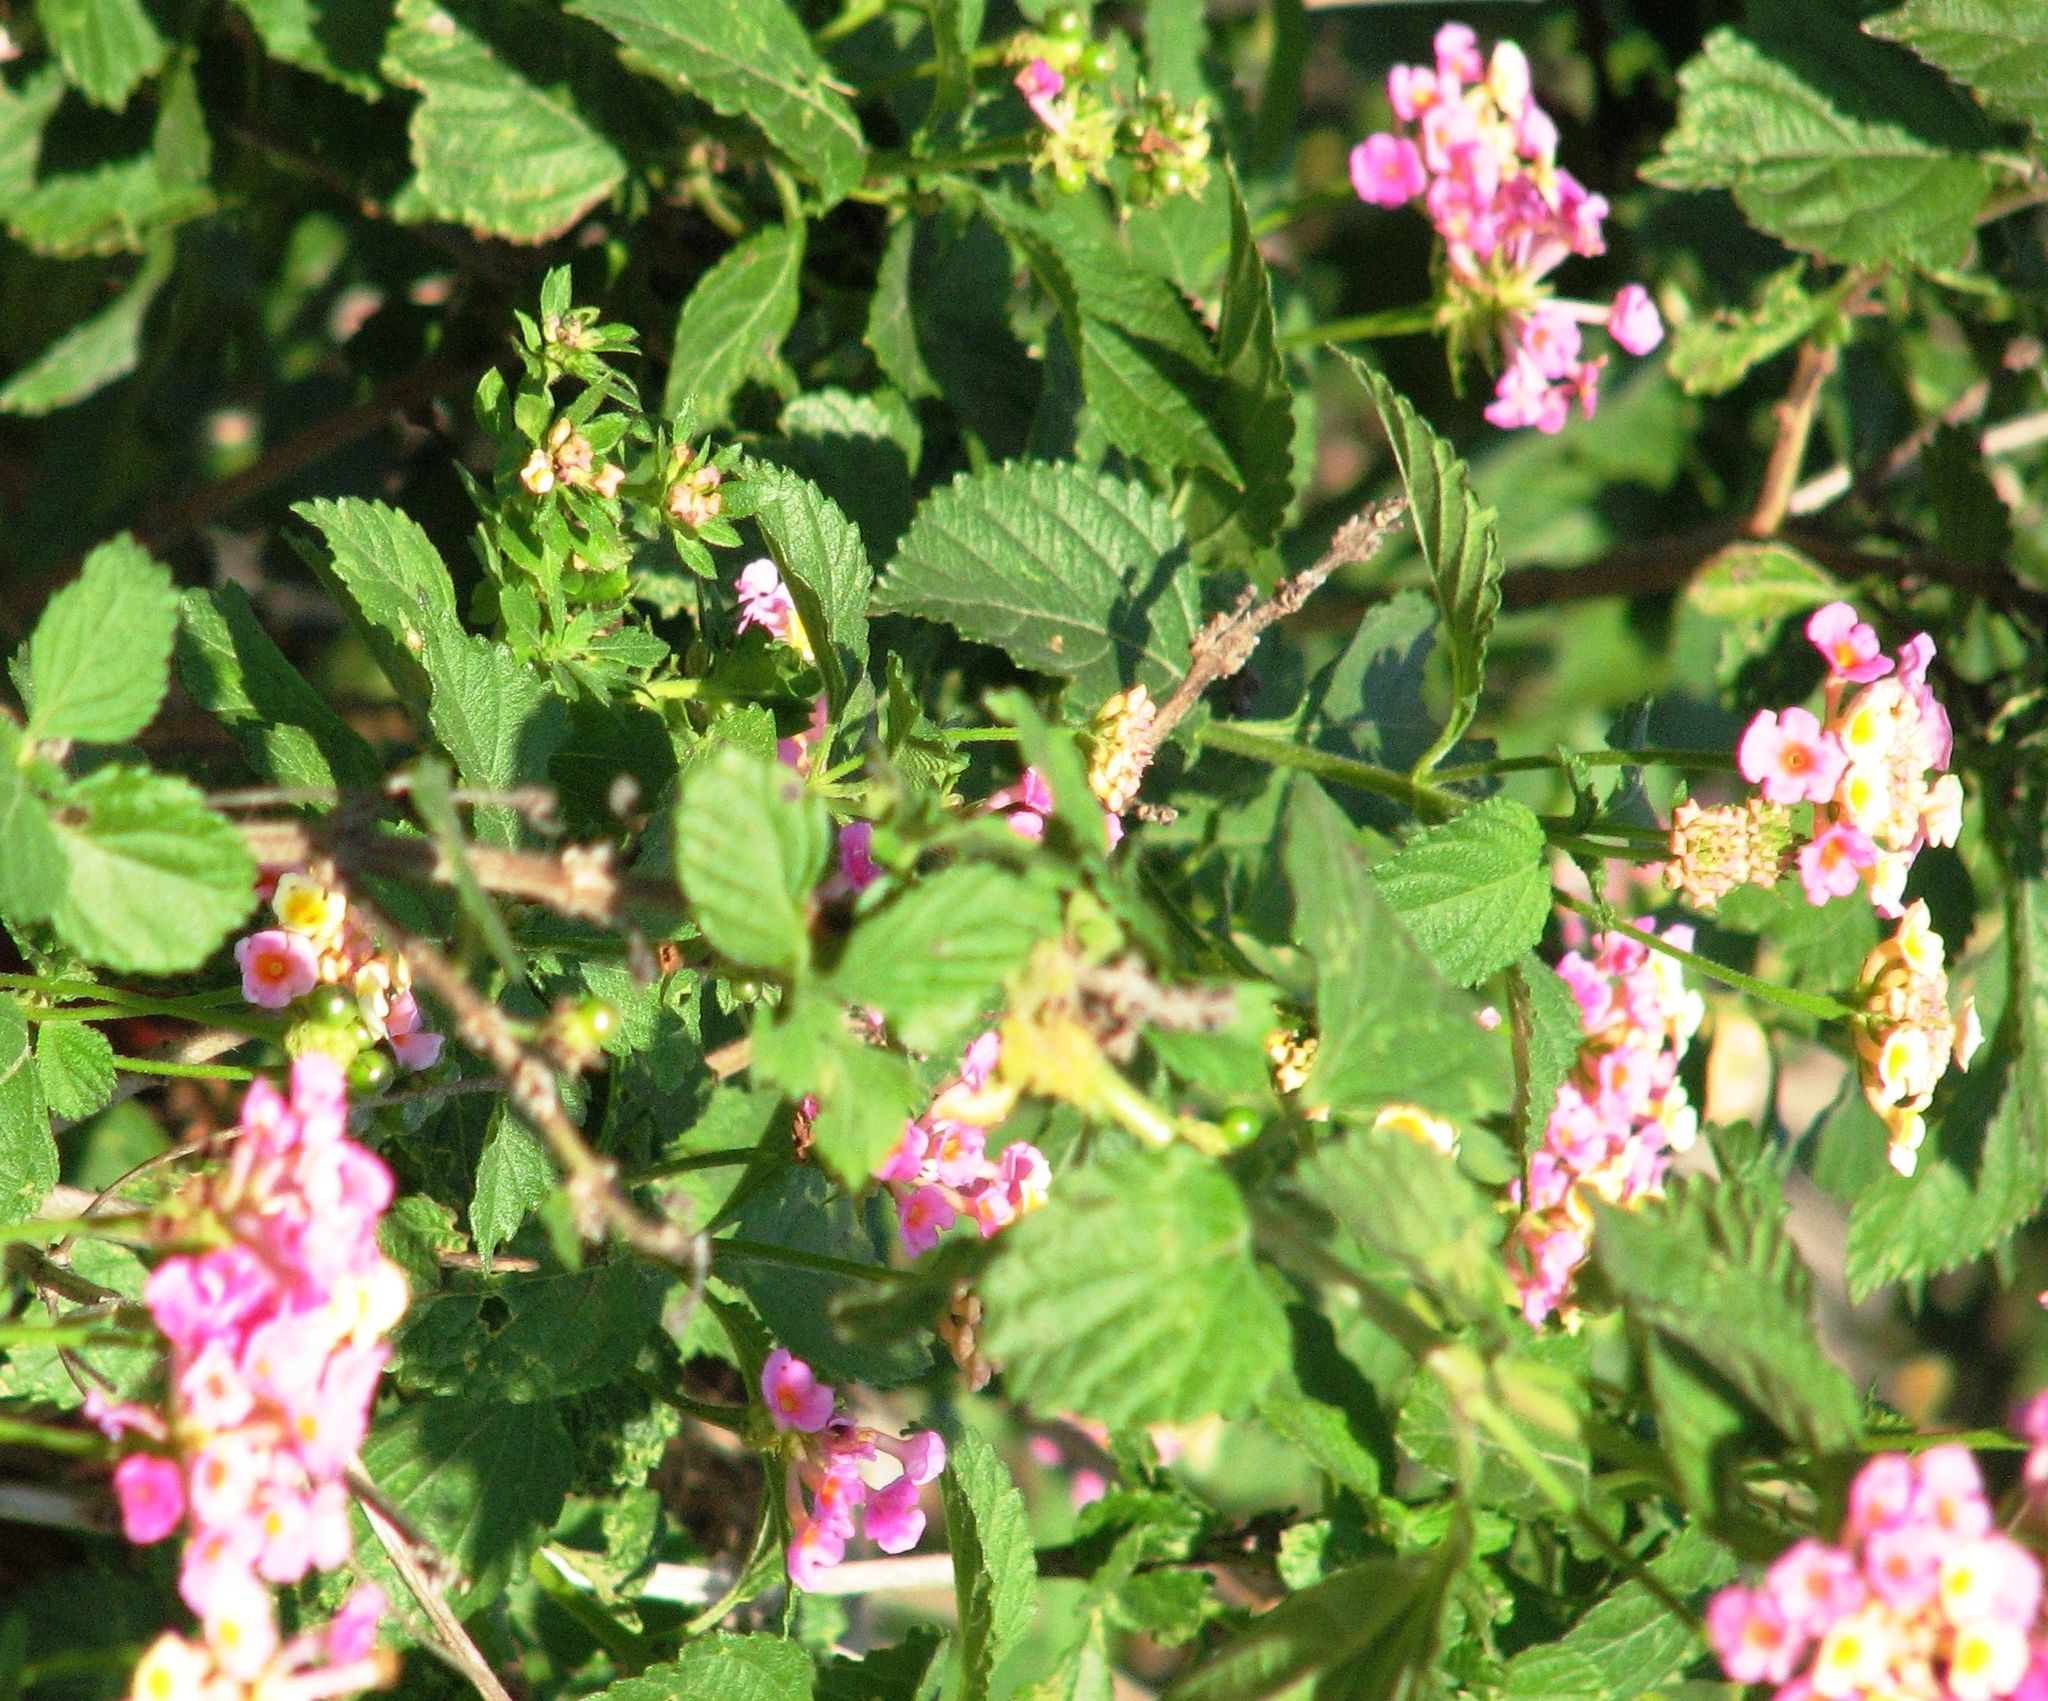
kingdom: Plantae
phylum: Tracheophyta
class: Magnoliopsida
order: Lamiales
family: Verbenaceae
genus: Lantana
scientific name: Lantana strigocamara
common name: Lantana
